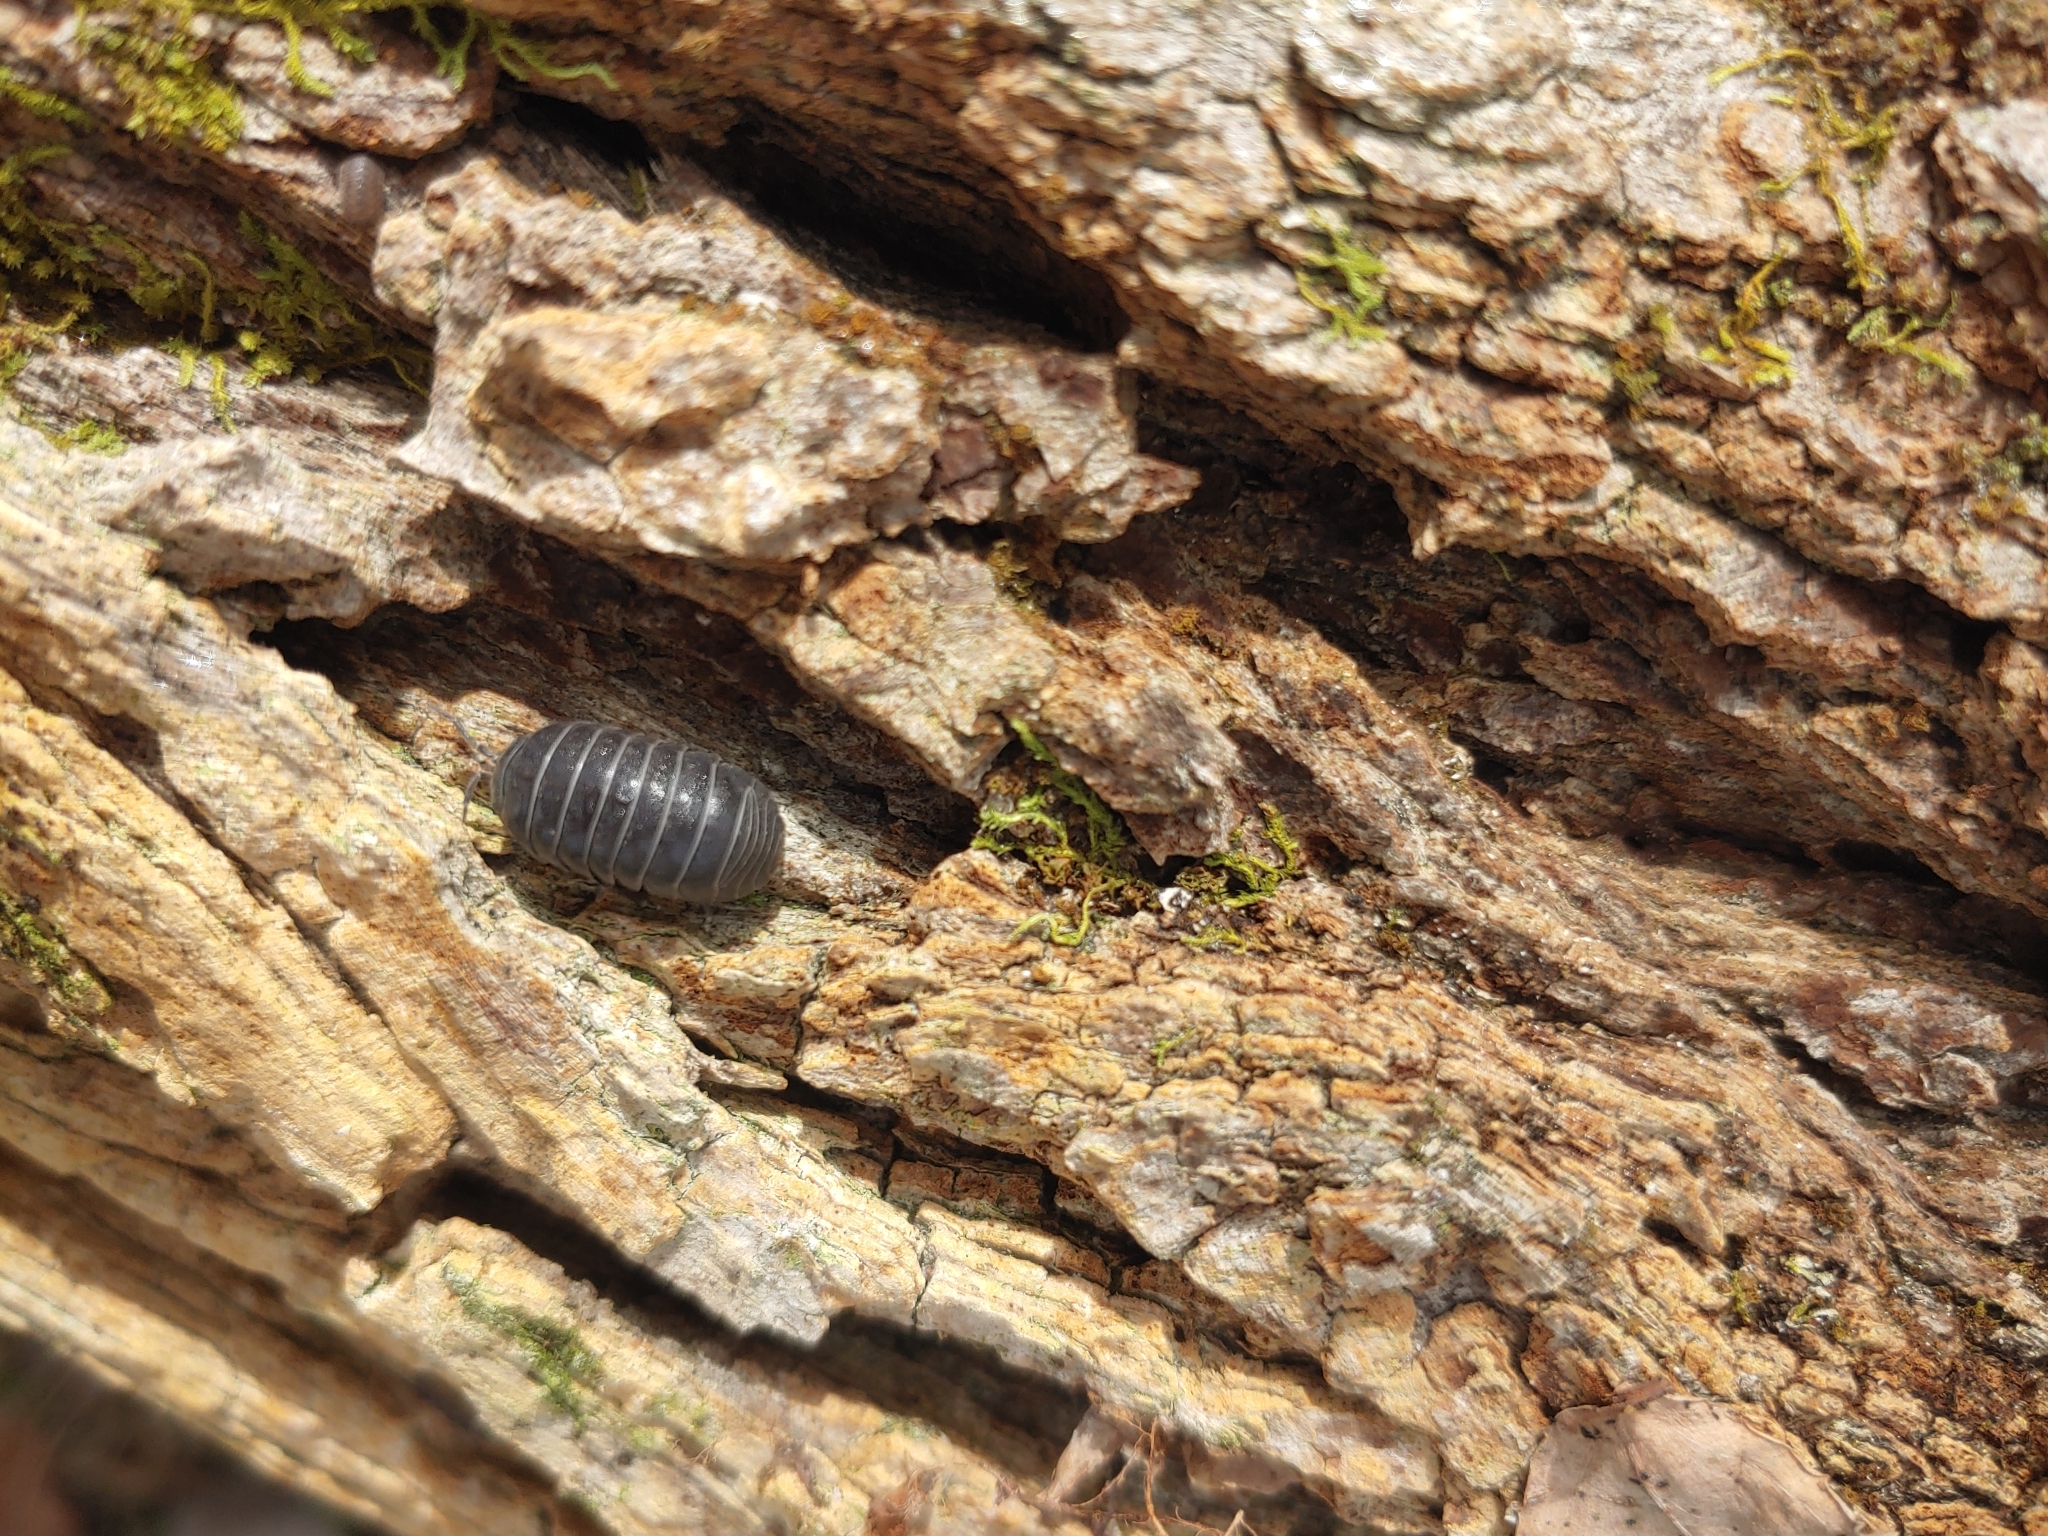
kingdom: Animalia
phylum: Arthropoda
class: Malacostraca
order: Isopoda
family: Armadillidiidae
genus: Armadillidium
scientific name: Armadillidium vulgare
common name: Common pill woodlouse
